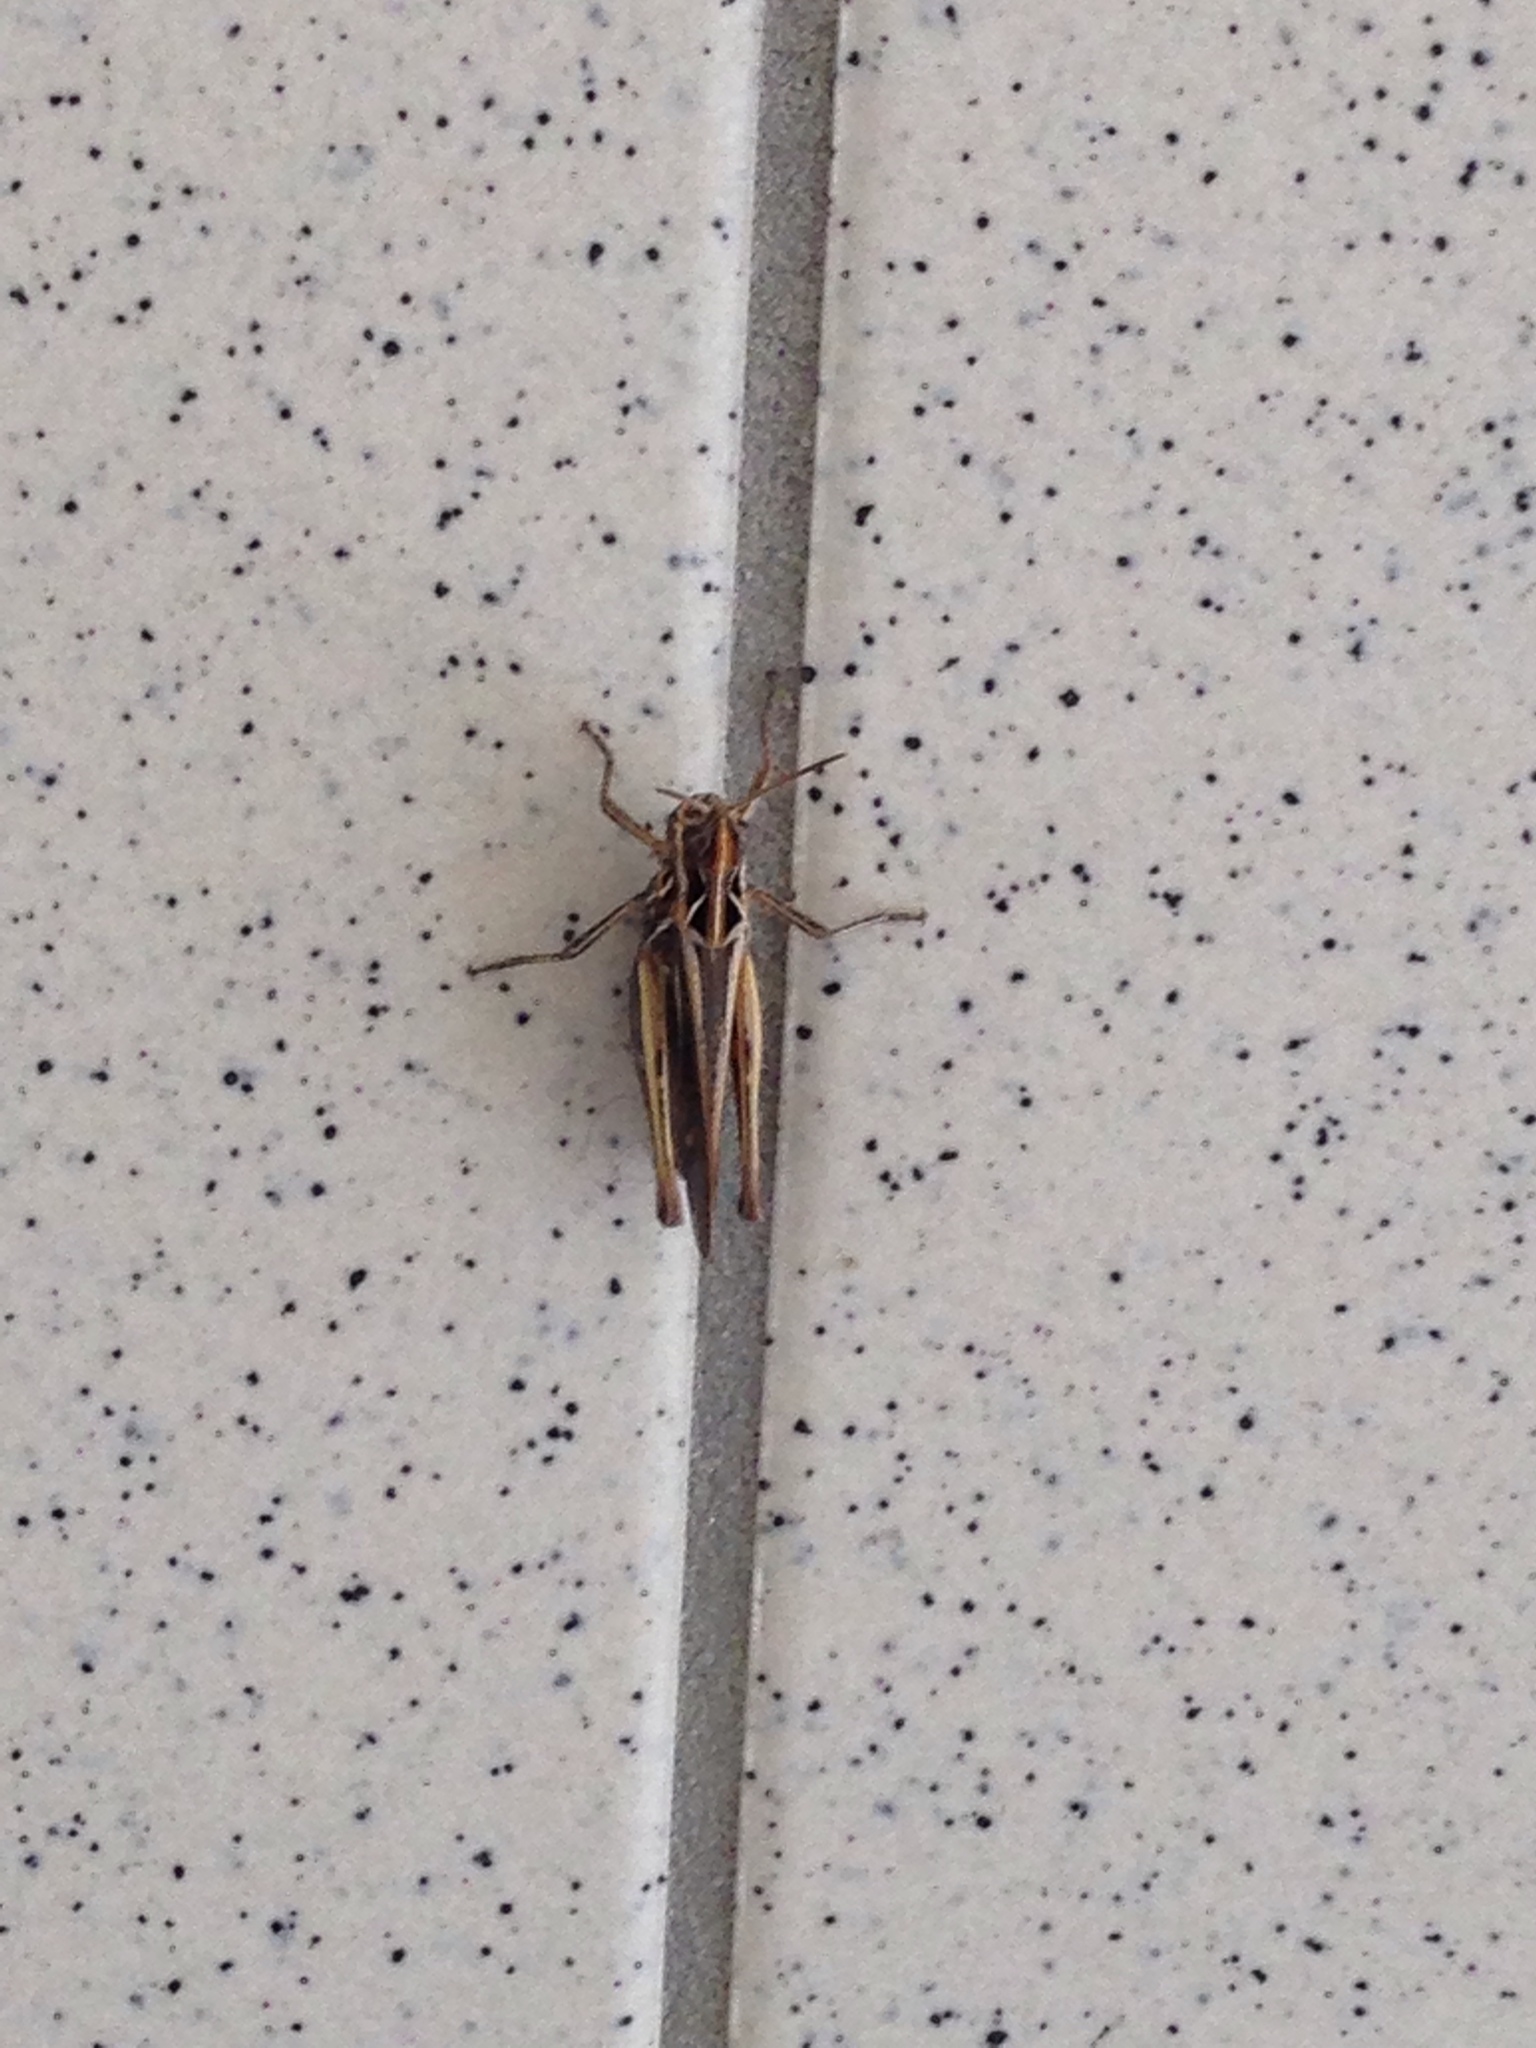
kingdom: Animalia
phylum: Arthropoda
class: Insecta
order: Orthoptera
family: Acrididae
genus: Glyptobothrus
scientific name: Glyptobothrus
